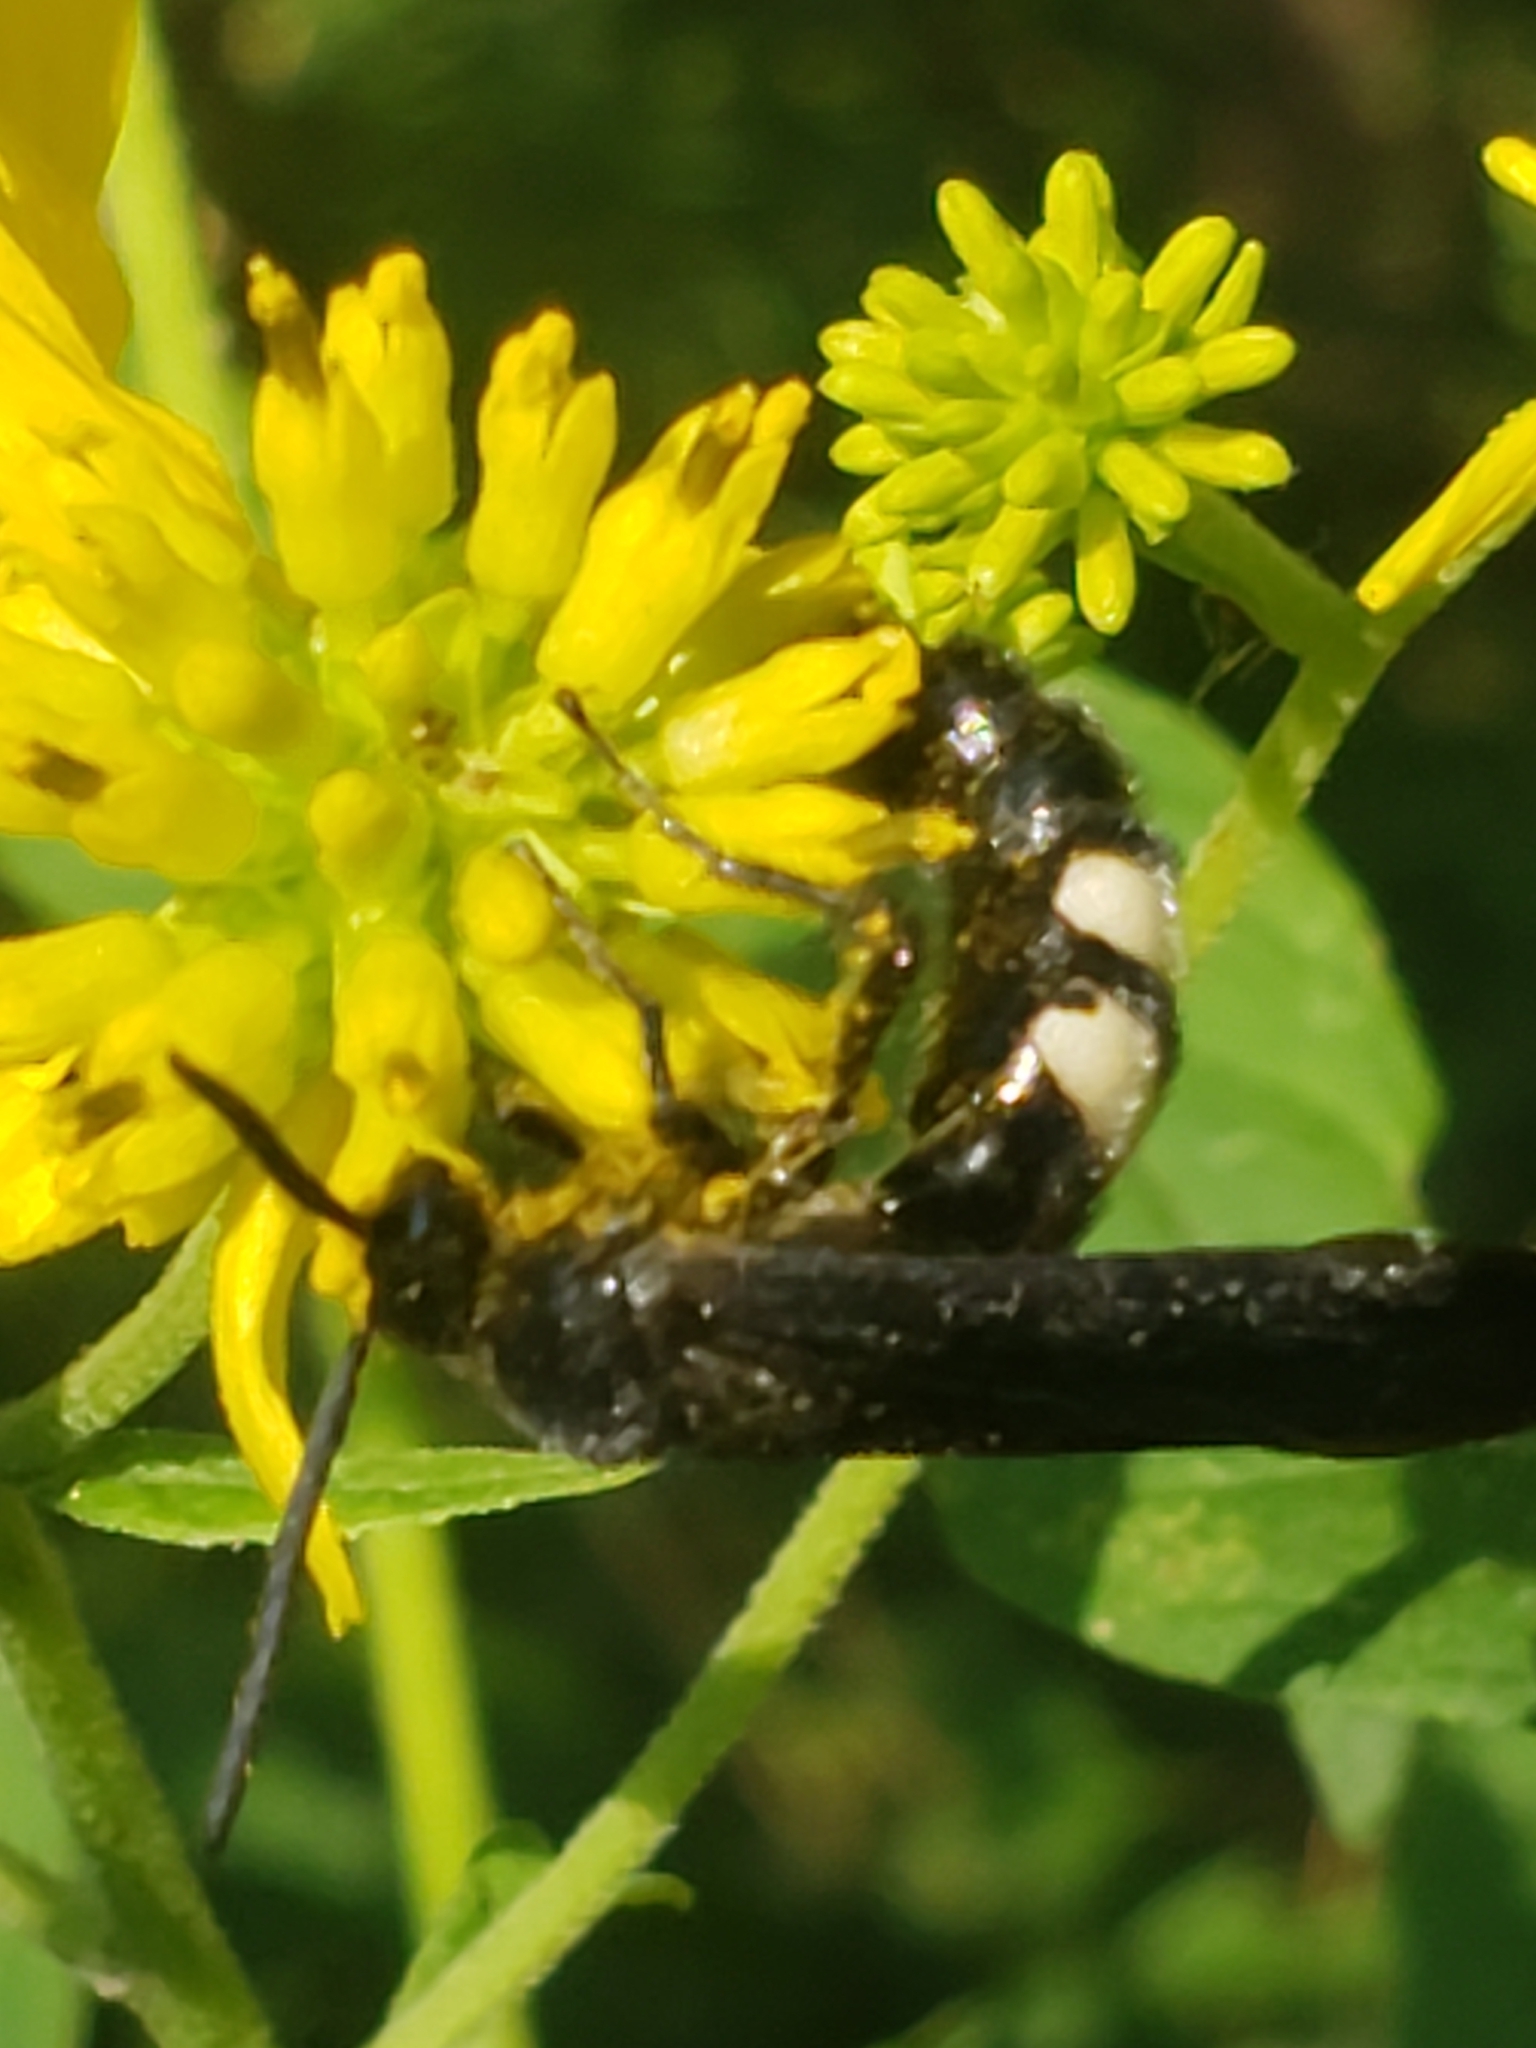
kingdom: Animalia
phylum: Arthropoda
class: Insecta
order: Hymenoptera
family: Scoliidae
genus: Scolia
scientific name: Scolia bicincta
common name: Double-banded scoliid wasp
